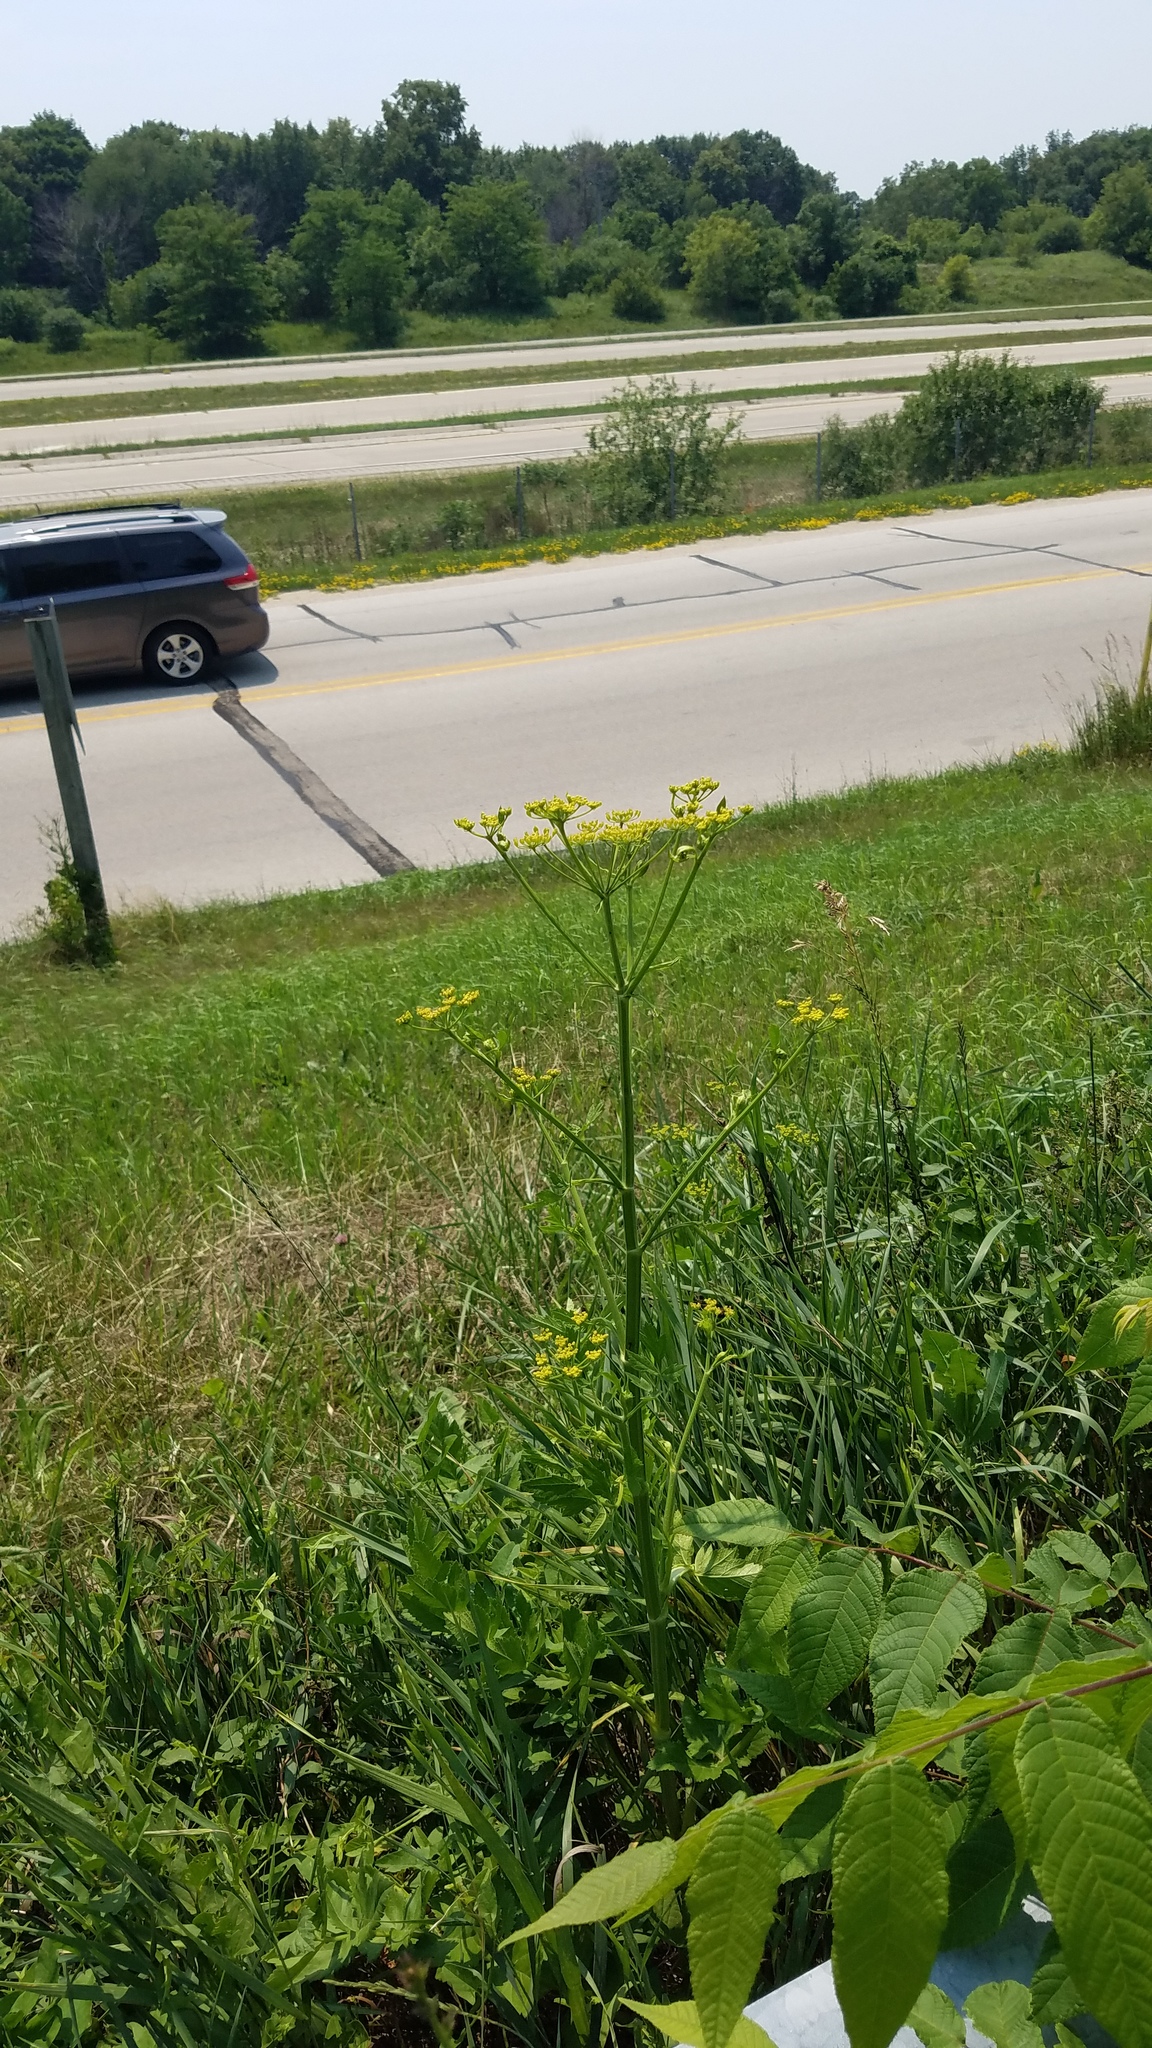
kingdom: Plantae
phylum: Tracheophyta
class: Magnoliopsida
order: Apiales
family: Apiaceae
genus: Pastinaca
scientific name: Pastinaca sativa
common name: Wild parsnip
